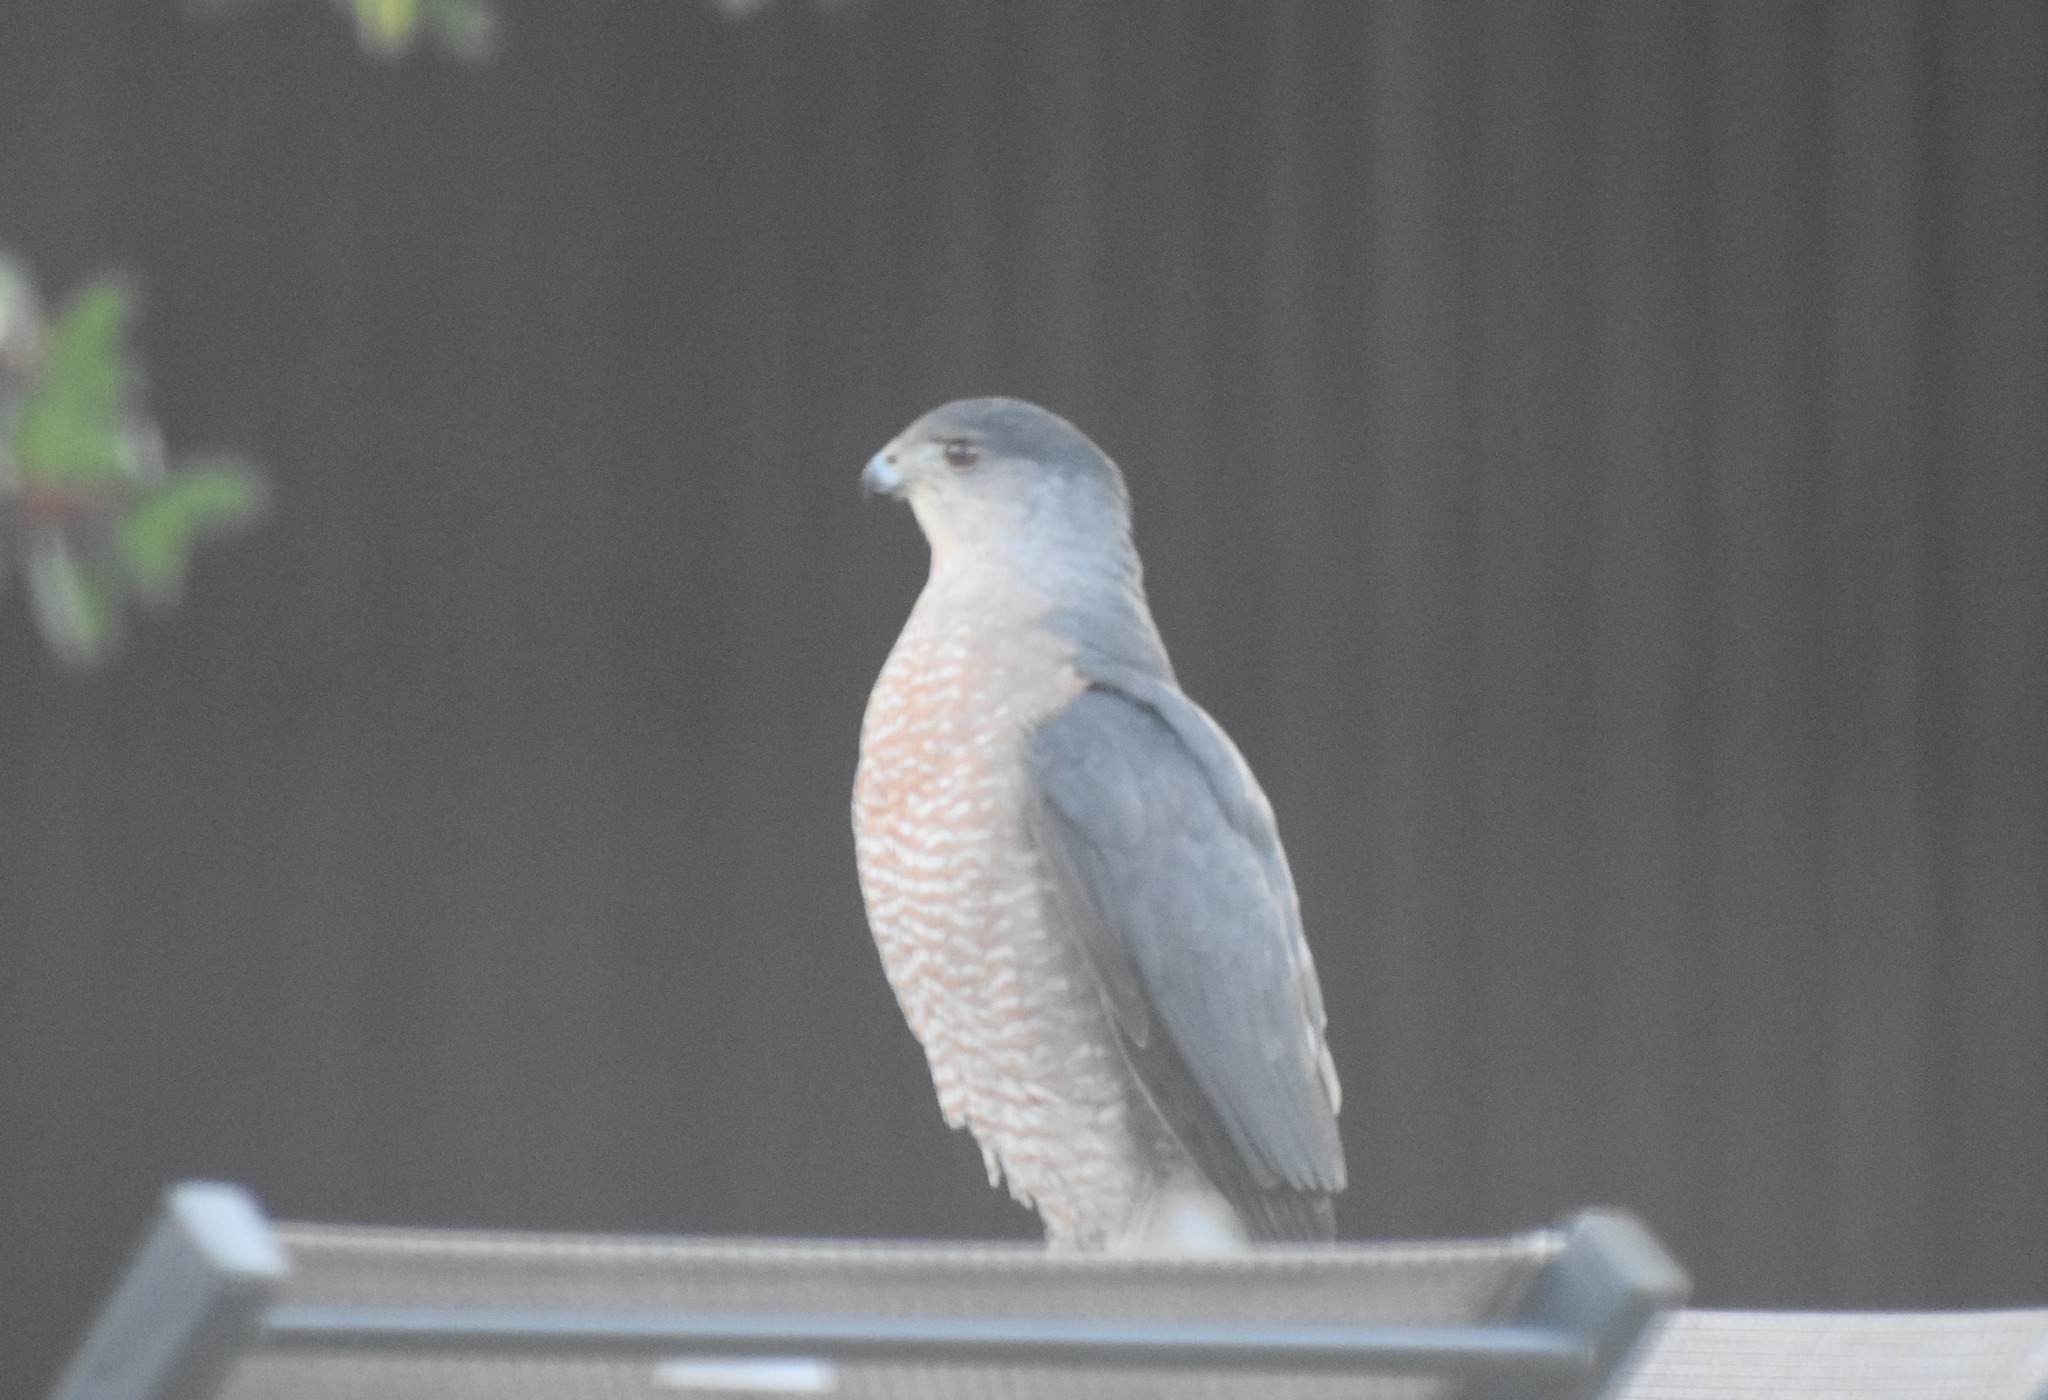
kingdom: Animalia
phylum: Chordata
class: Aves
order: Accipitriformes
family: Accipitridae
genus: Accipiter
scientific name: Accipiter cooperii
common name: Cooper's hawk
